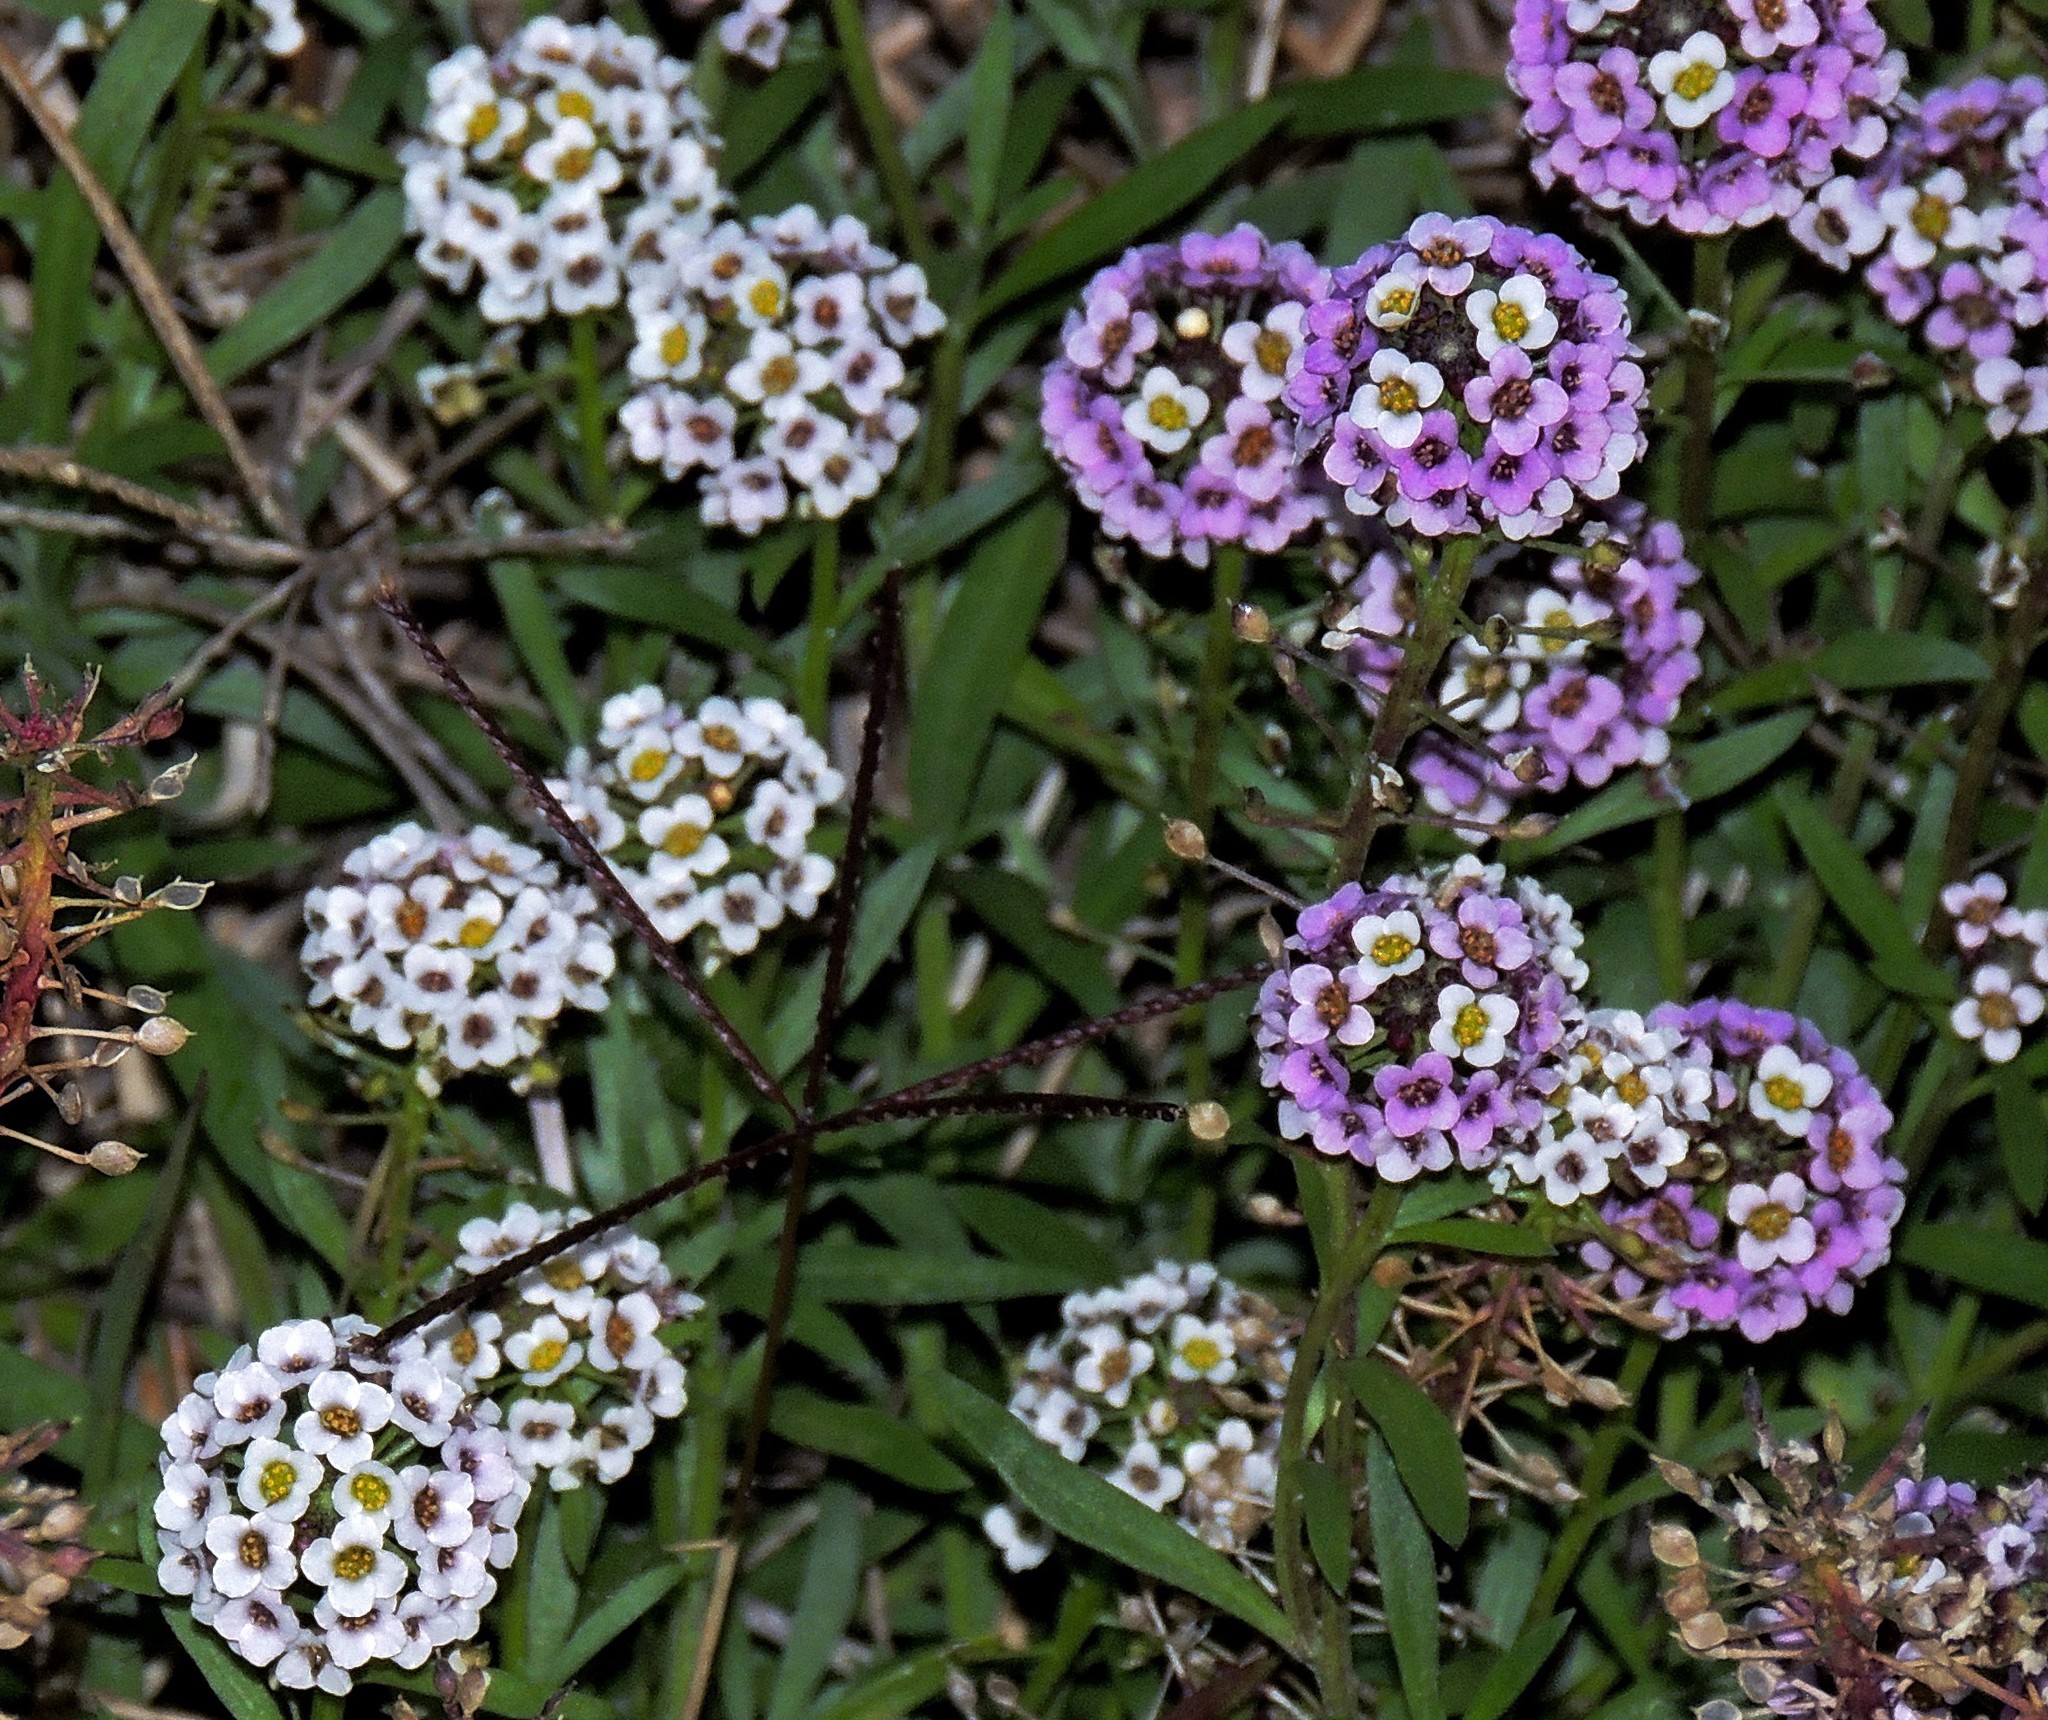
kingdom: Plantae
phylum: Tracheophyta
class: Magnoliopsida
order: Brassicales
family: Brassicaceae
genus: Lobularia
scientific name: Lobularia maritima
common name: Sweet alison
